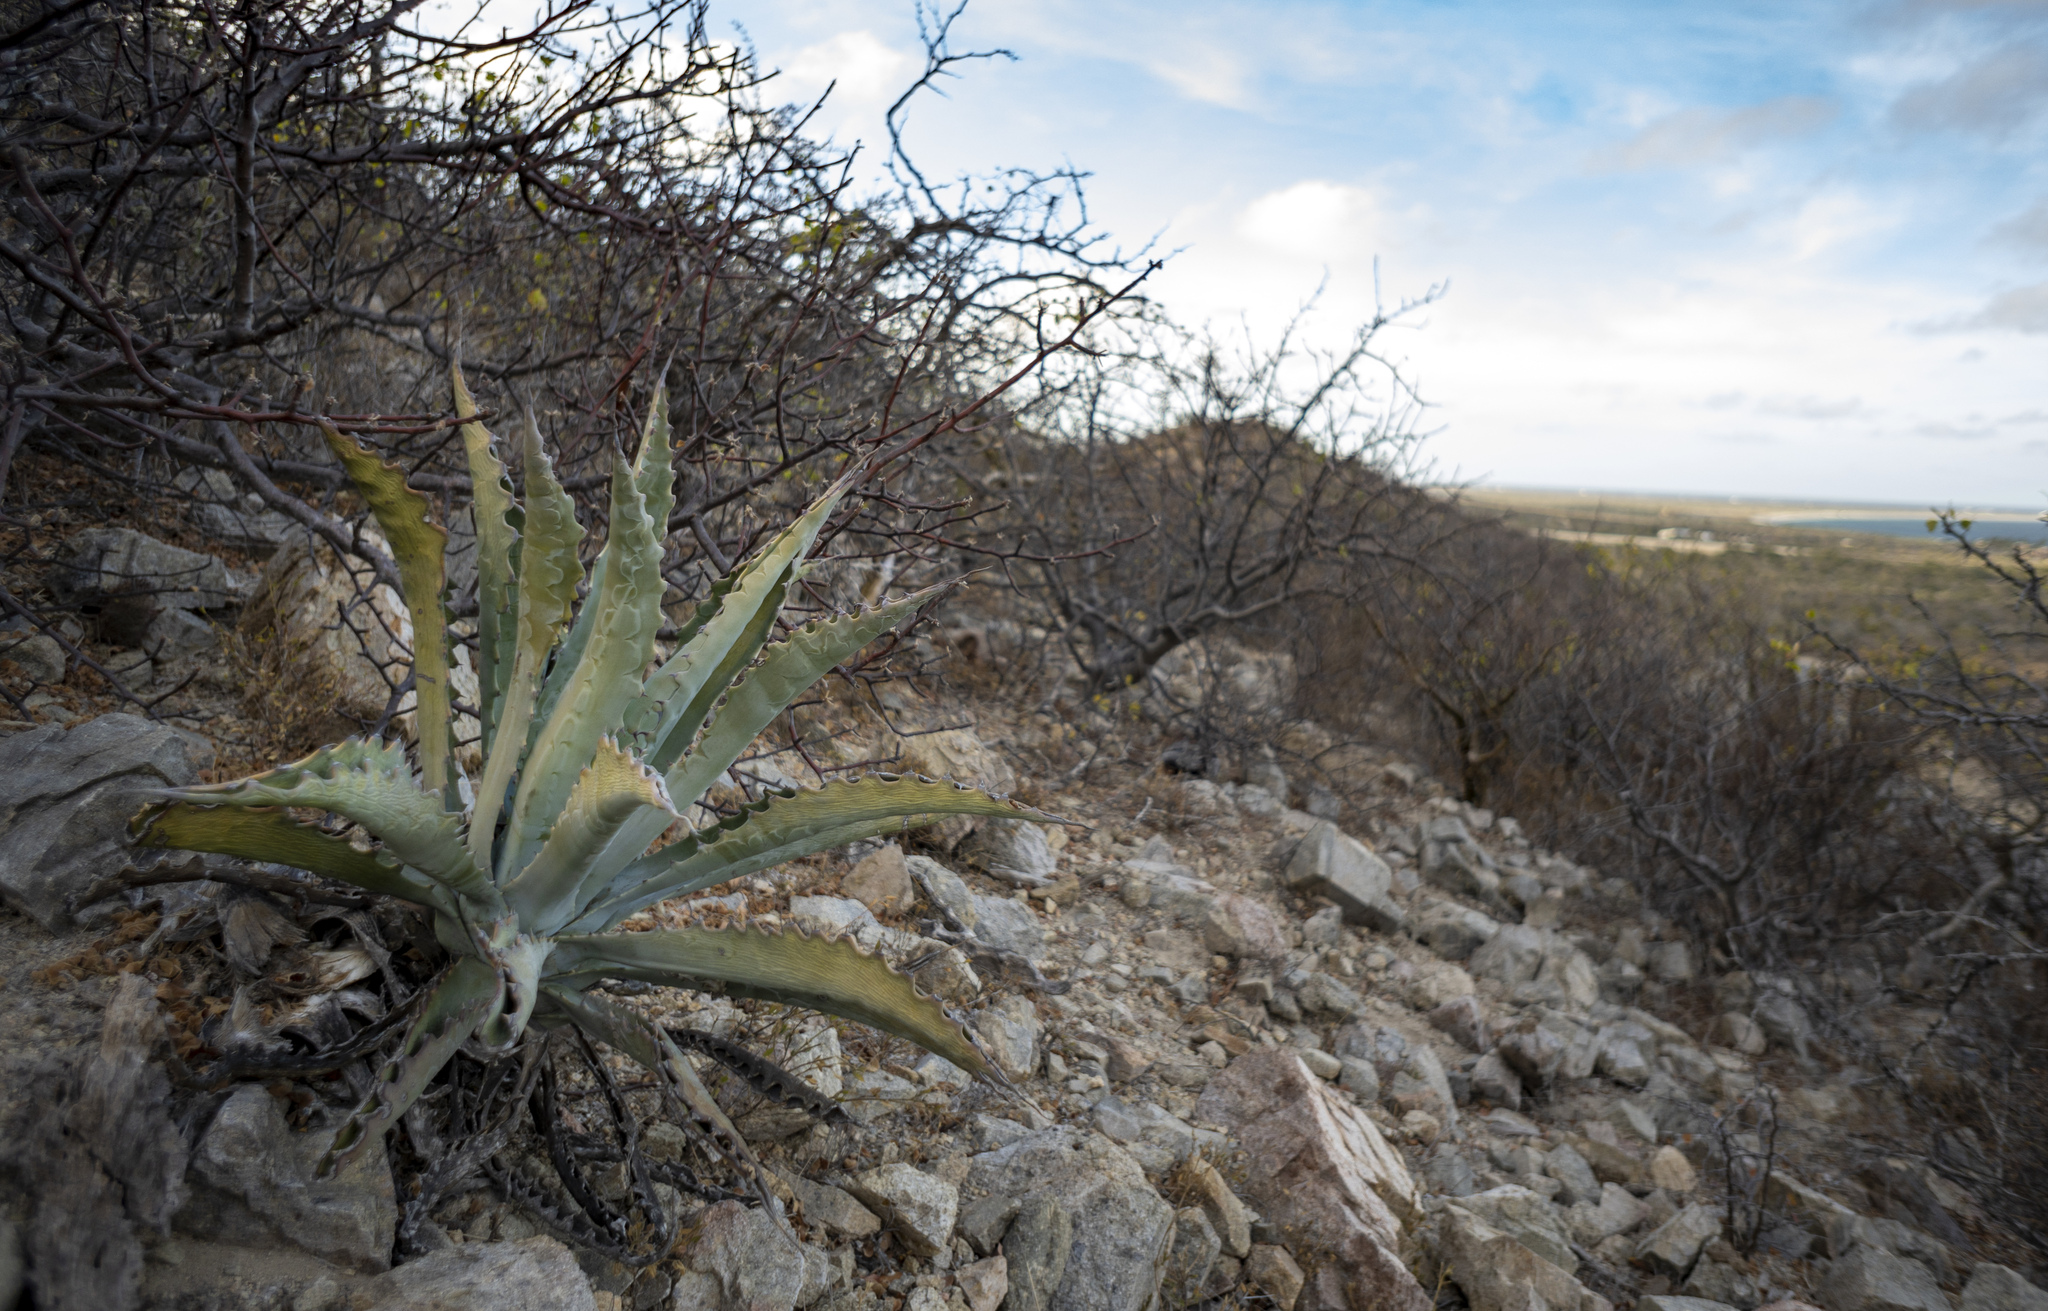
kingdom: Plantae
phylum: Tracheophyta
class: Liliopsida
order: Asparagales
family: Asparagaceae
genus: Agave
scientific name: Agave sobria
